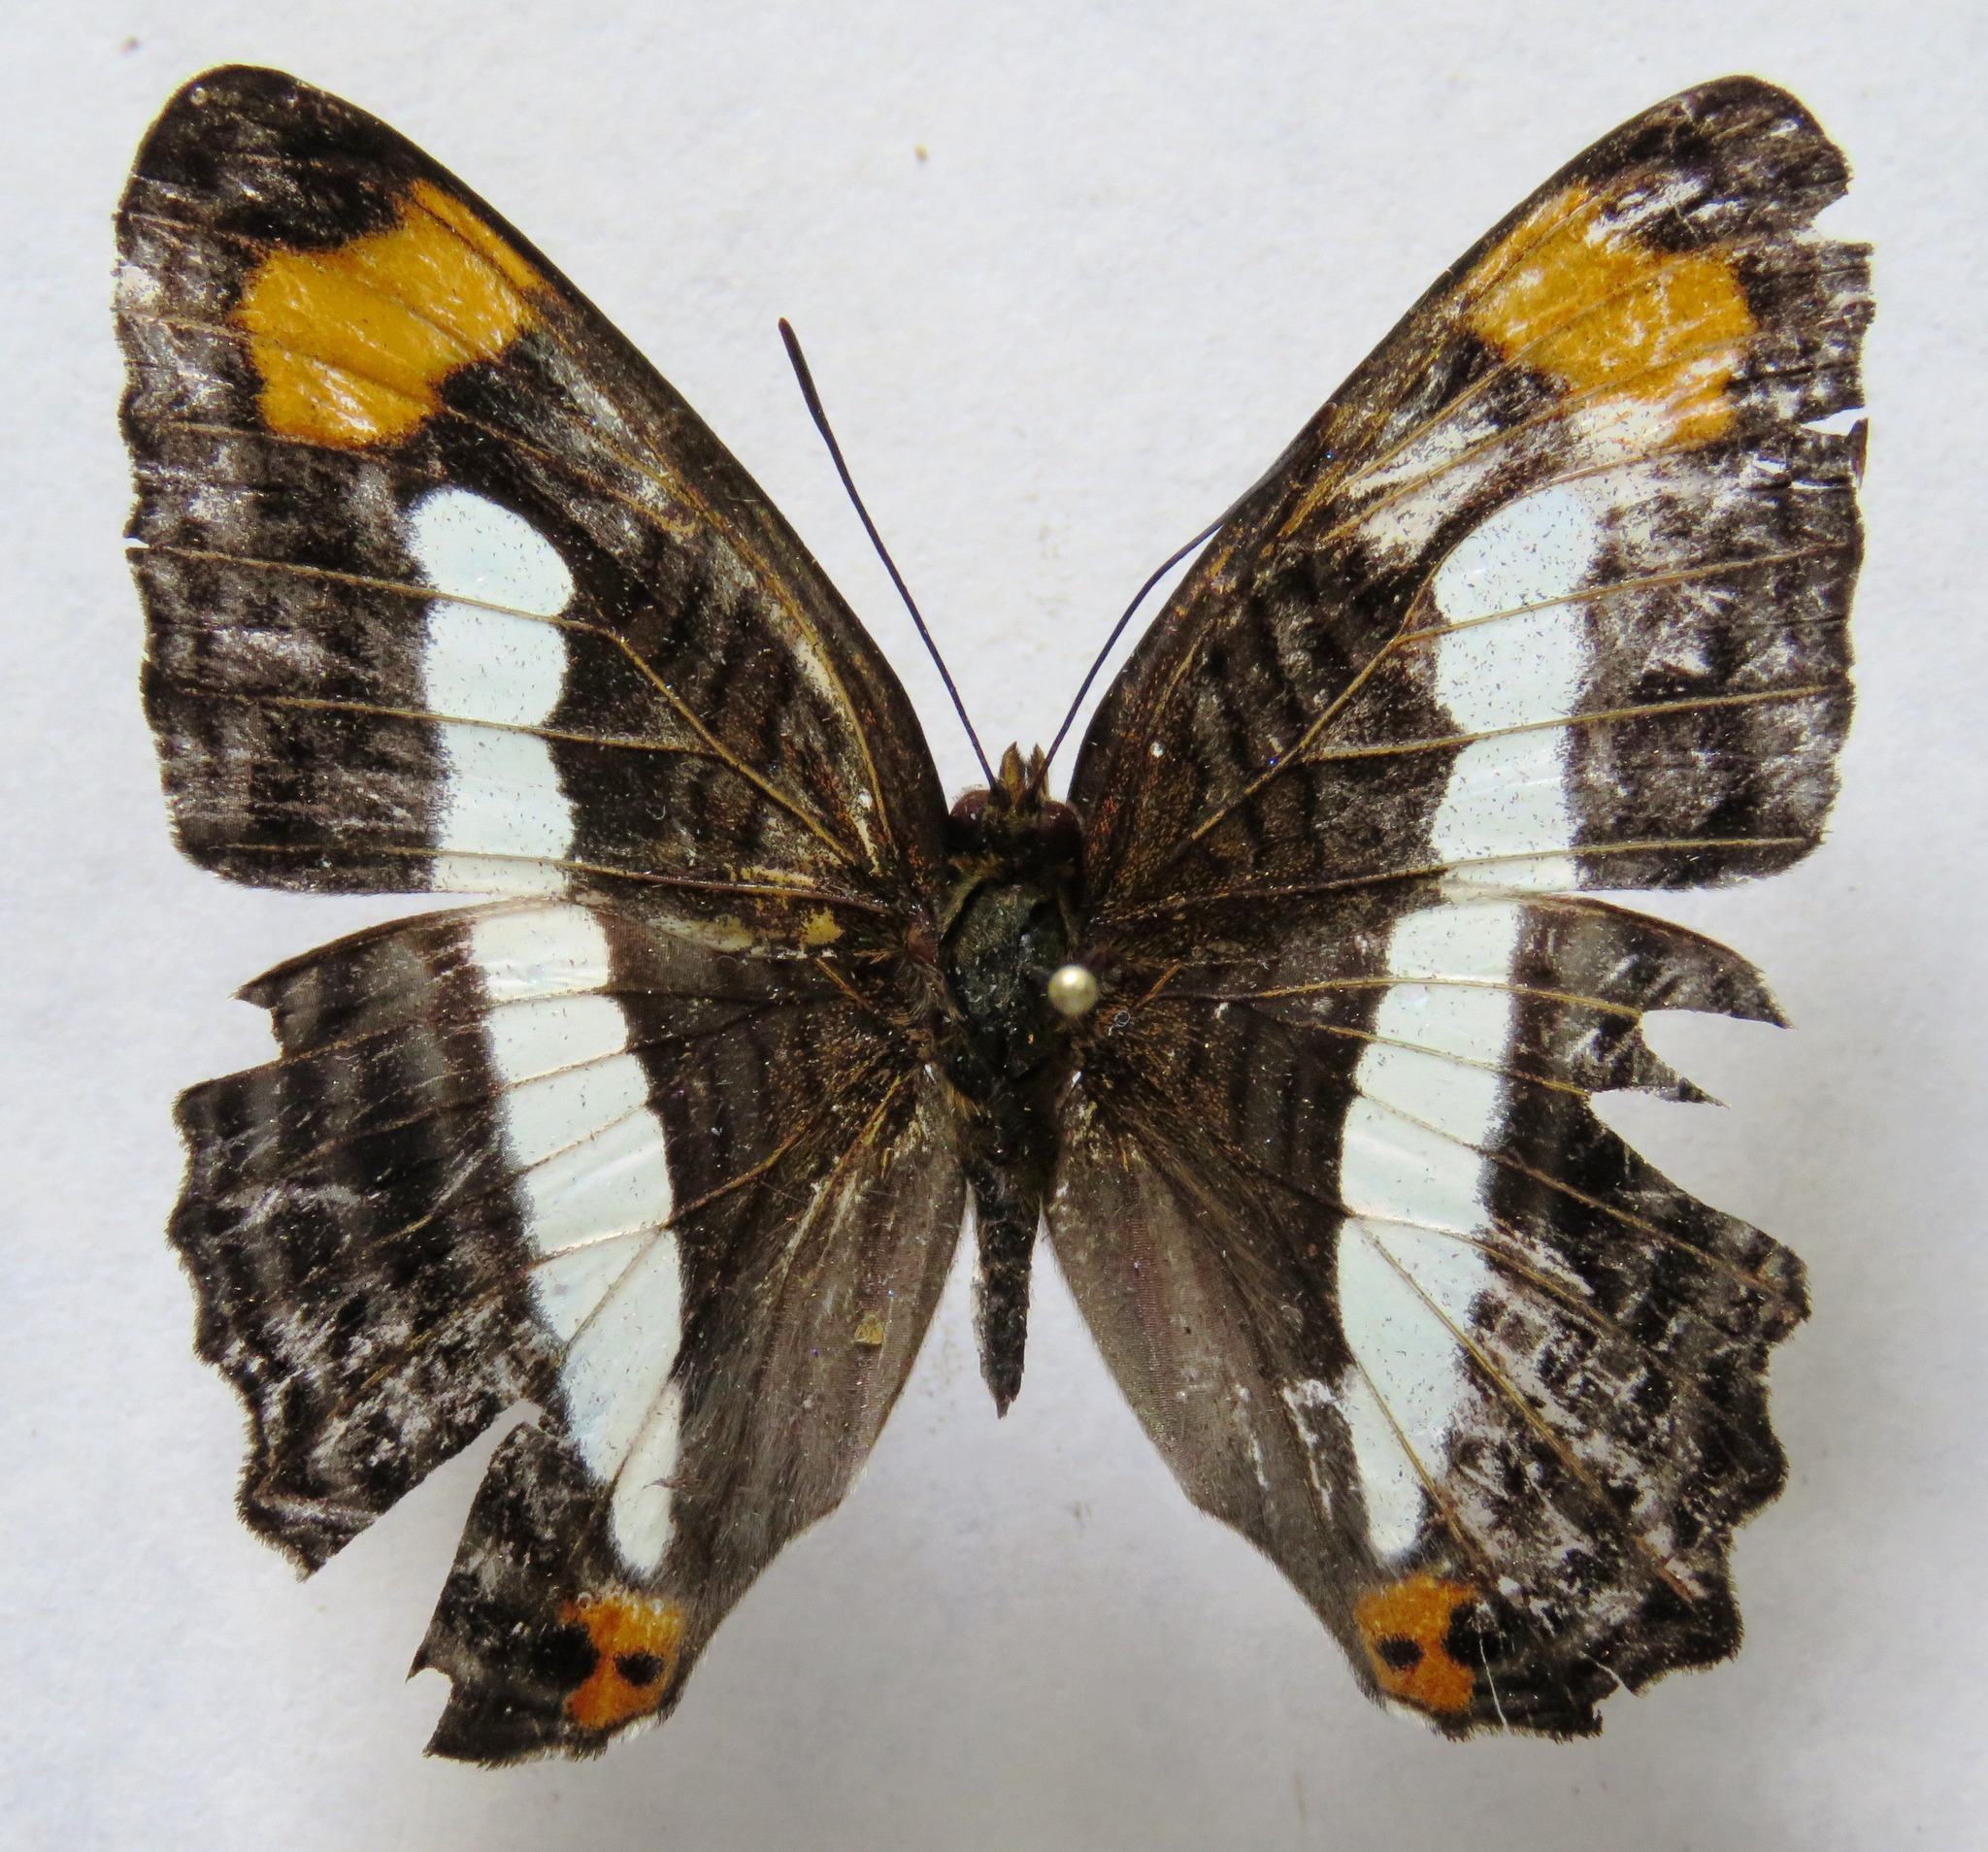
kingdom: Animalia
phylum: Arthropoda
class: Insecta
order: Lepidoptera
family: Nymphalidae
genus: Limenitis
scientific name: Limenitis iphiclus
